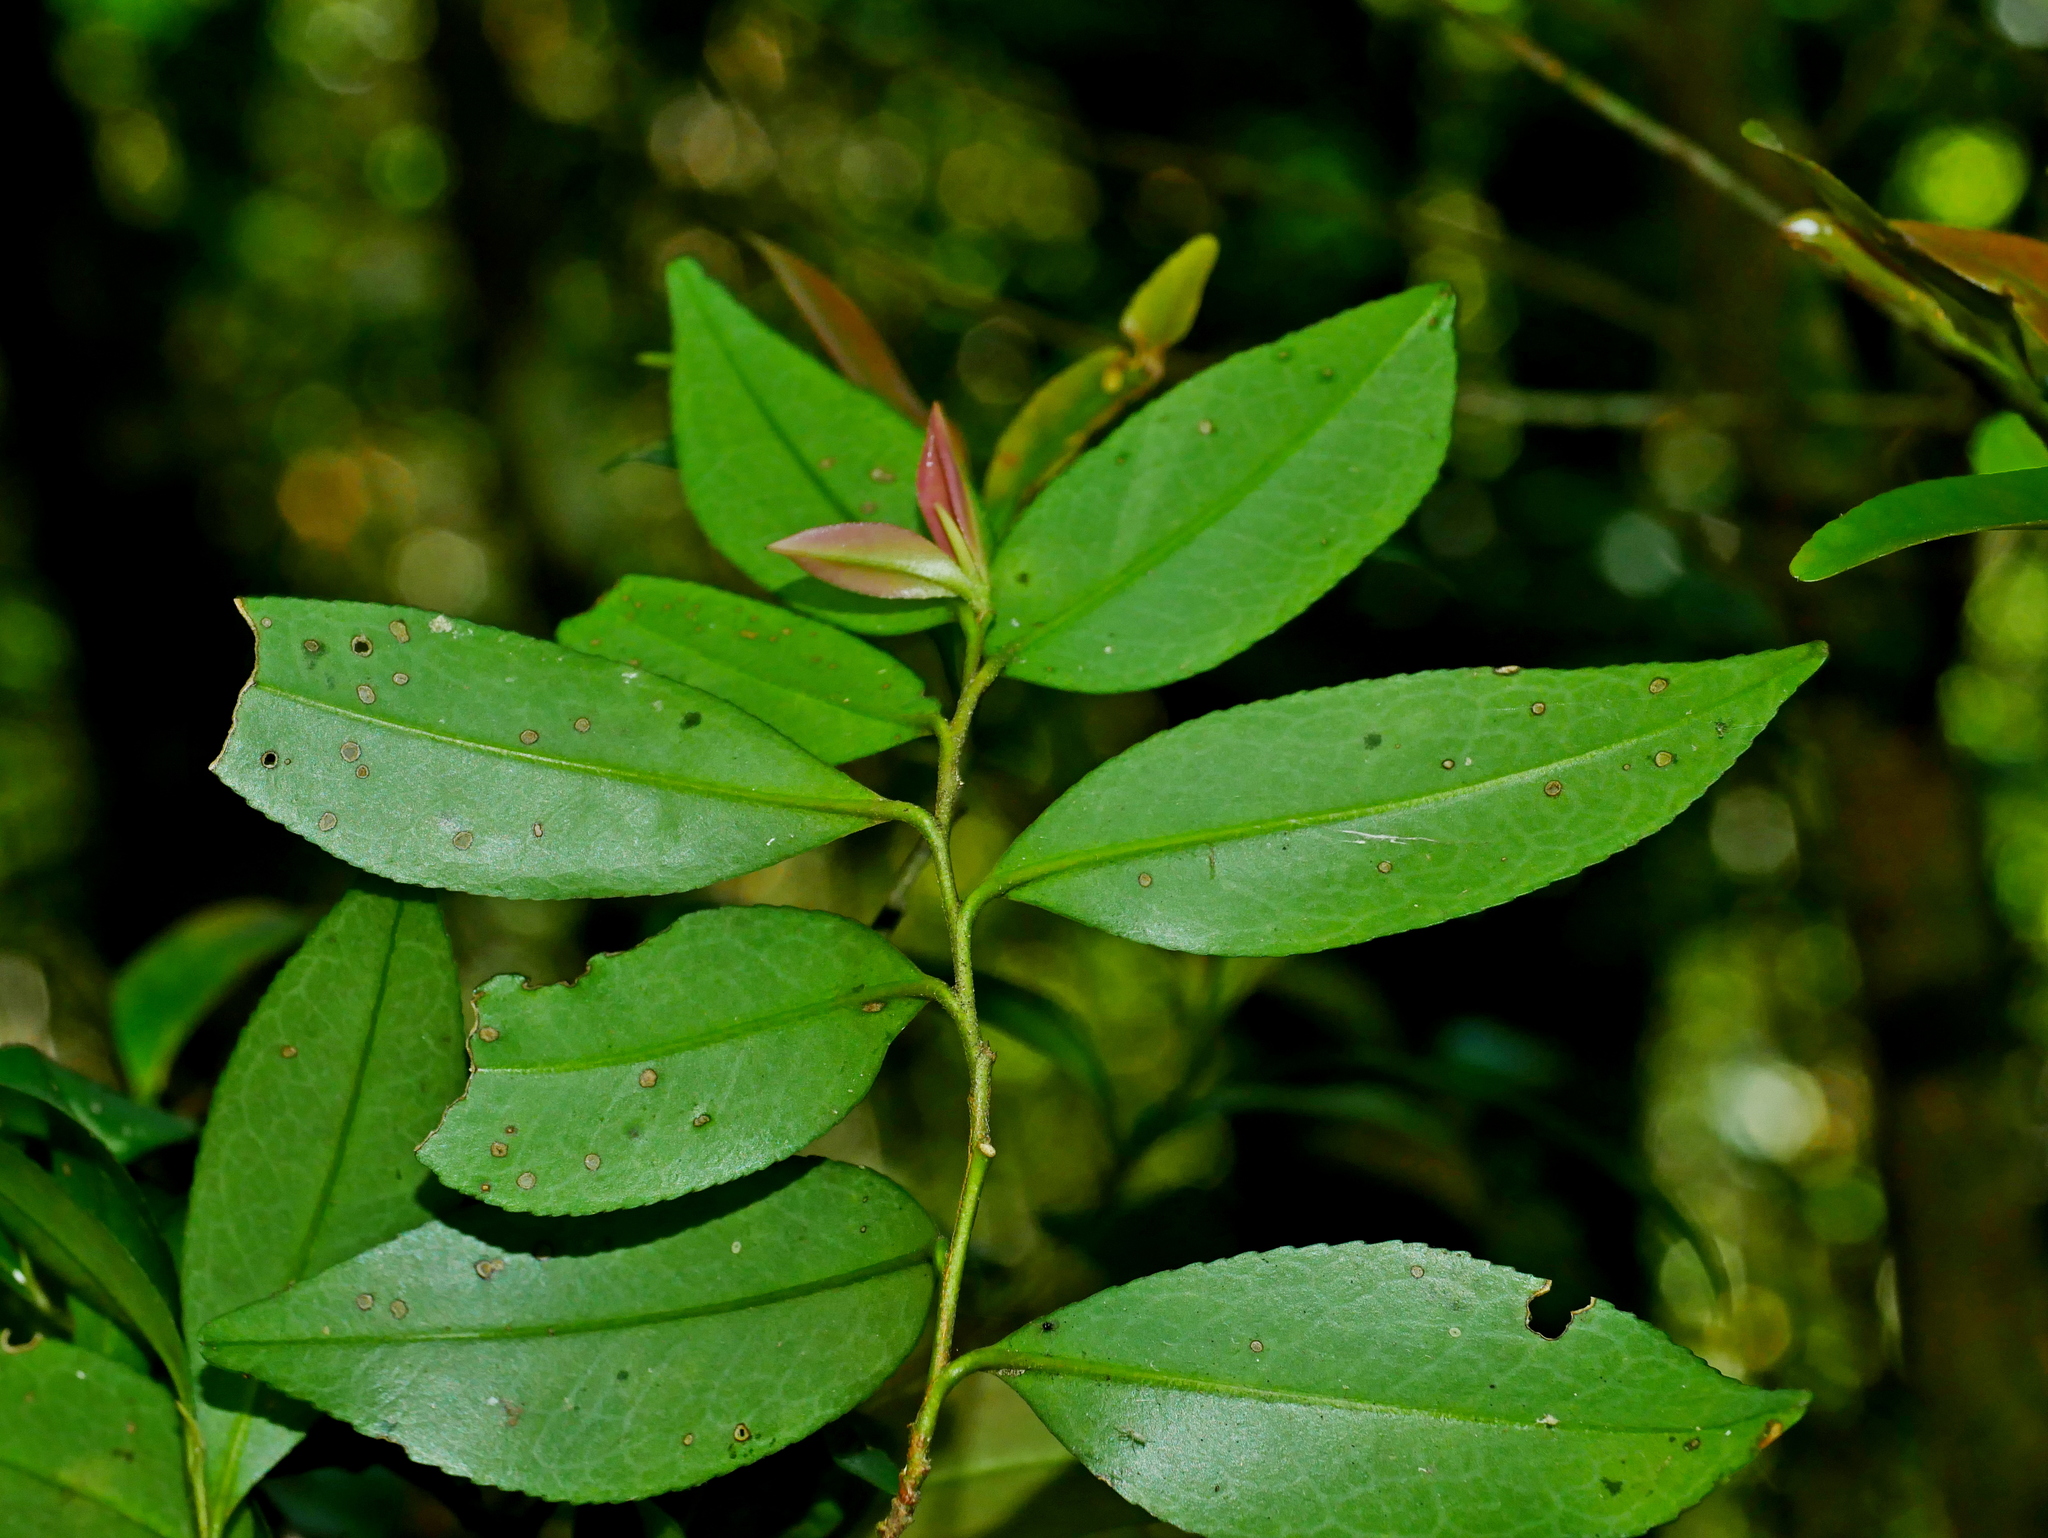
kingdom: Plantae
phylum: Tracheophyta
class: Magnoliopsida
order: Ericales
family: Pentaphylacaceae
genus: Eurya
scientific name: Eurya nitida
